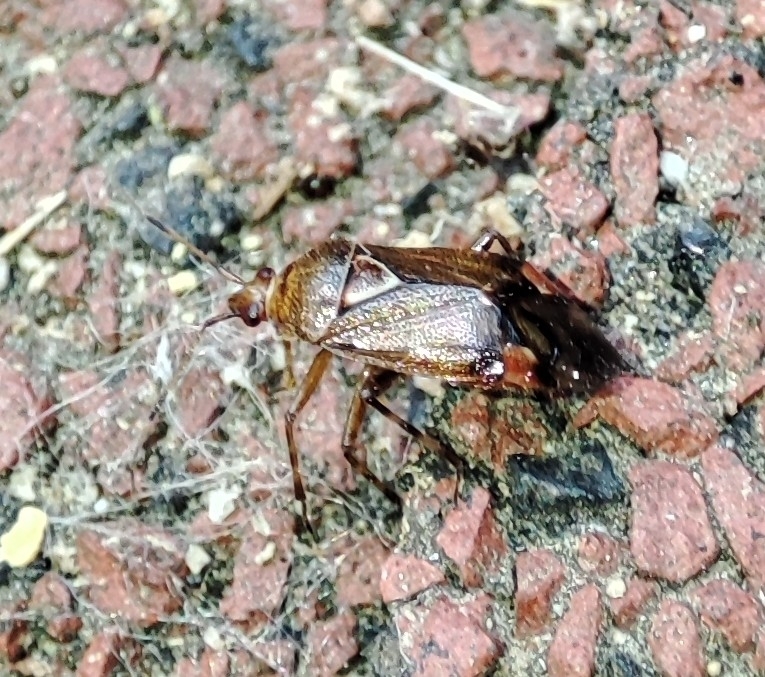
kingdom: Animalia
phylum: Arthropoda
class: Insecta
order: Hemiptera
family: Miridae
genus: Deraeocoris
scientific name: Deraeocoris flavilinea
